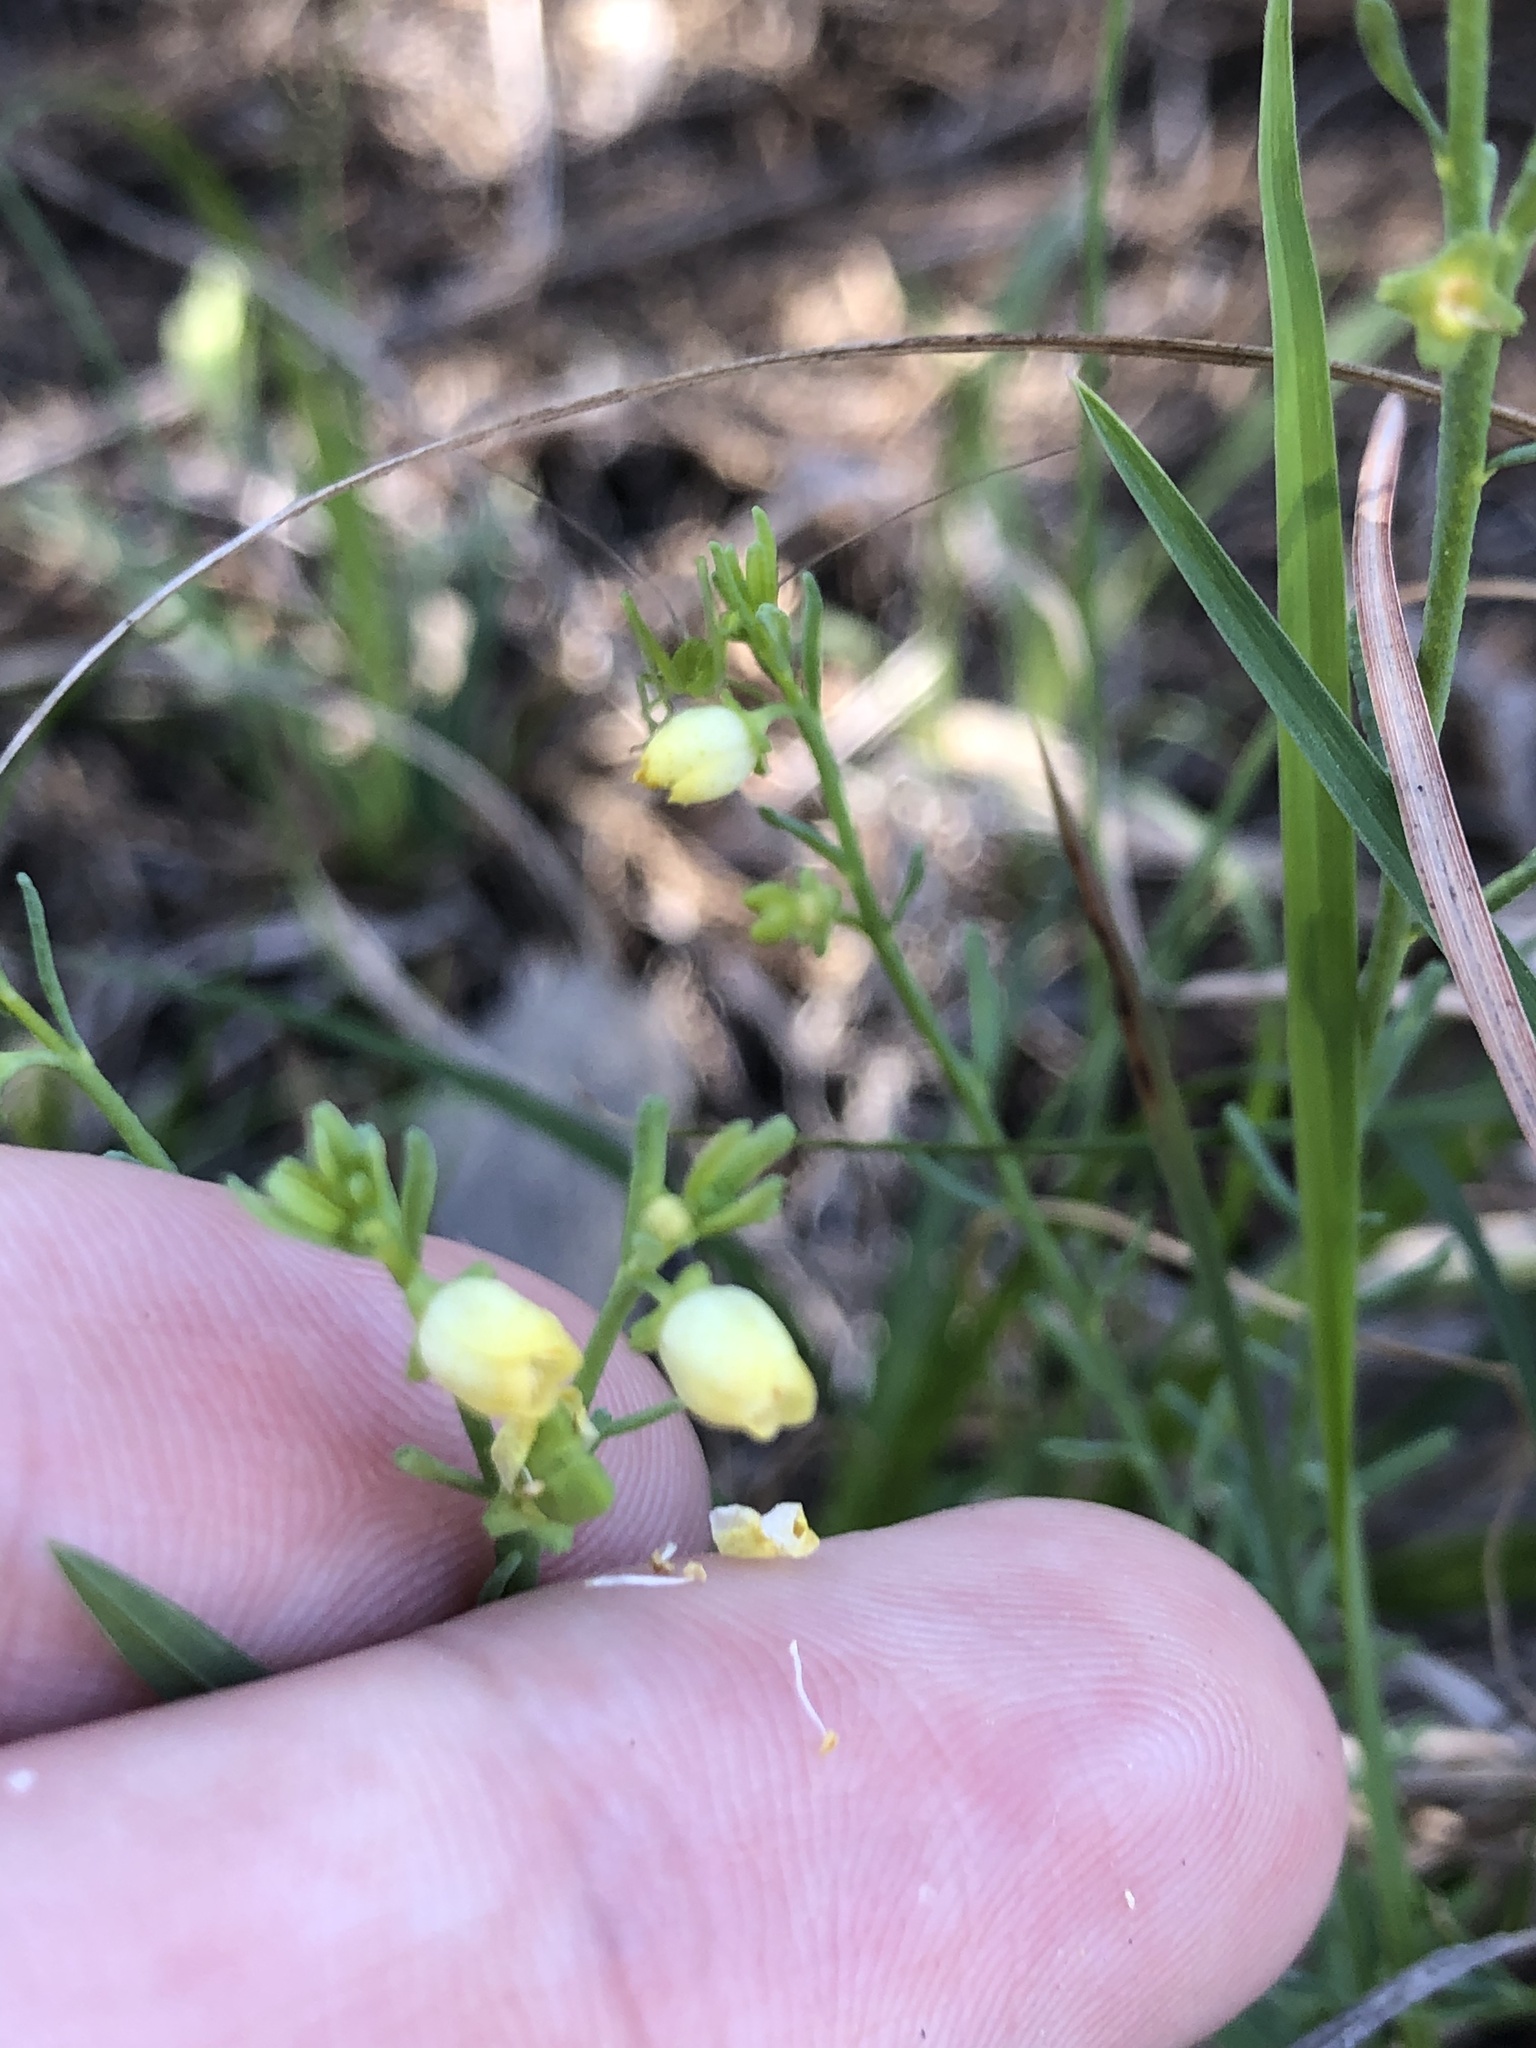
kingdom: Plantae
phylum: Tracheophyta
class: Magnoliopsida
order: Sapindales
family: Rutaceae
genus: Thamnosma
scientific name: Thamnosma texana
